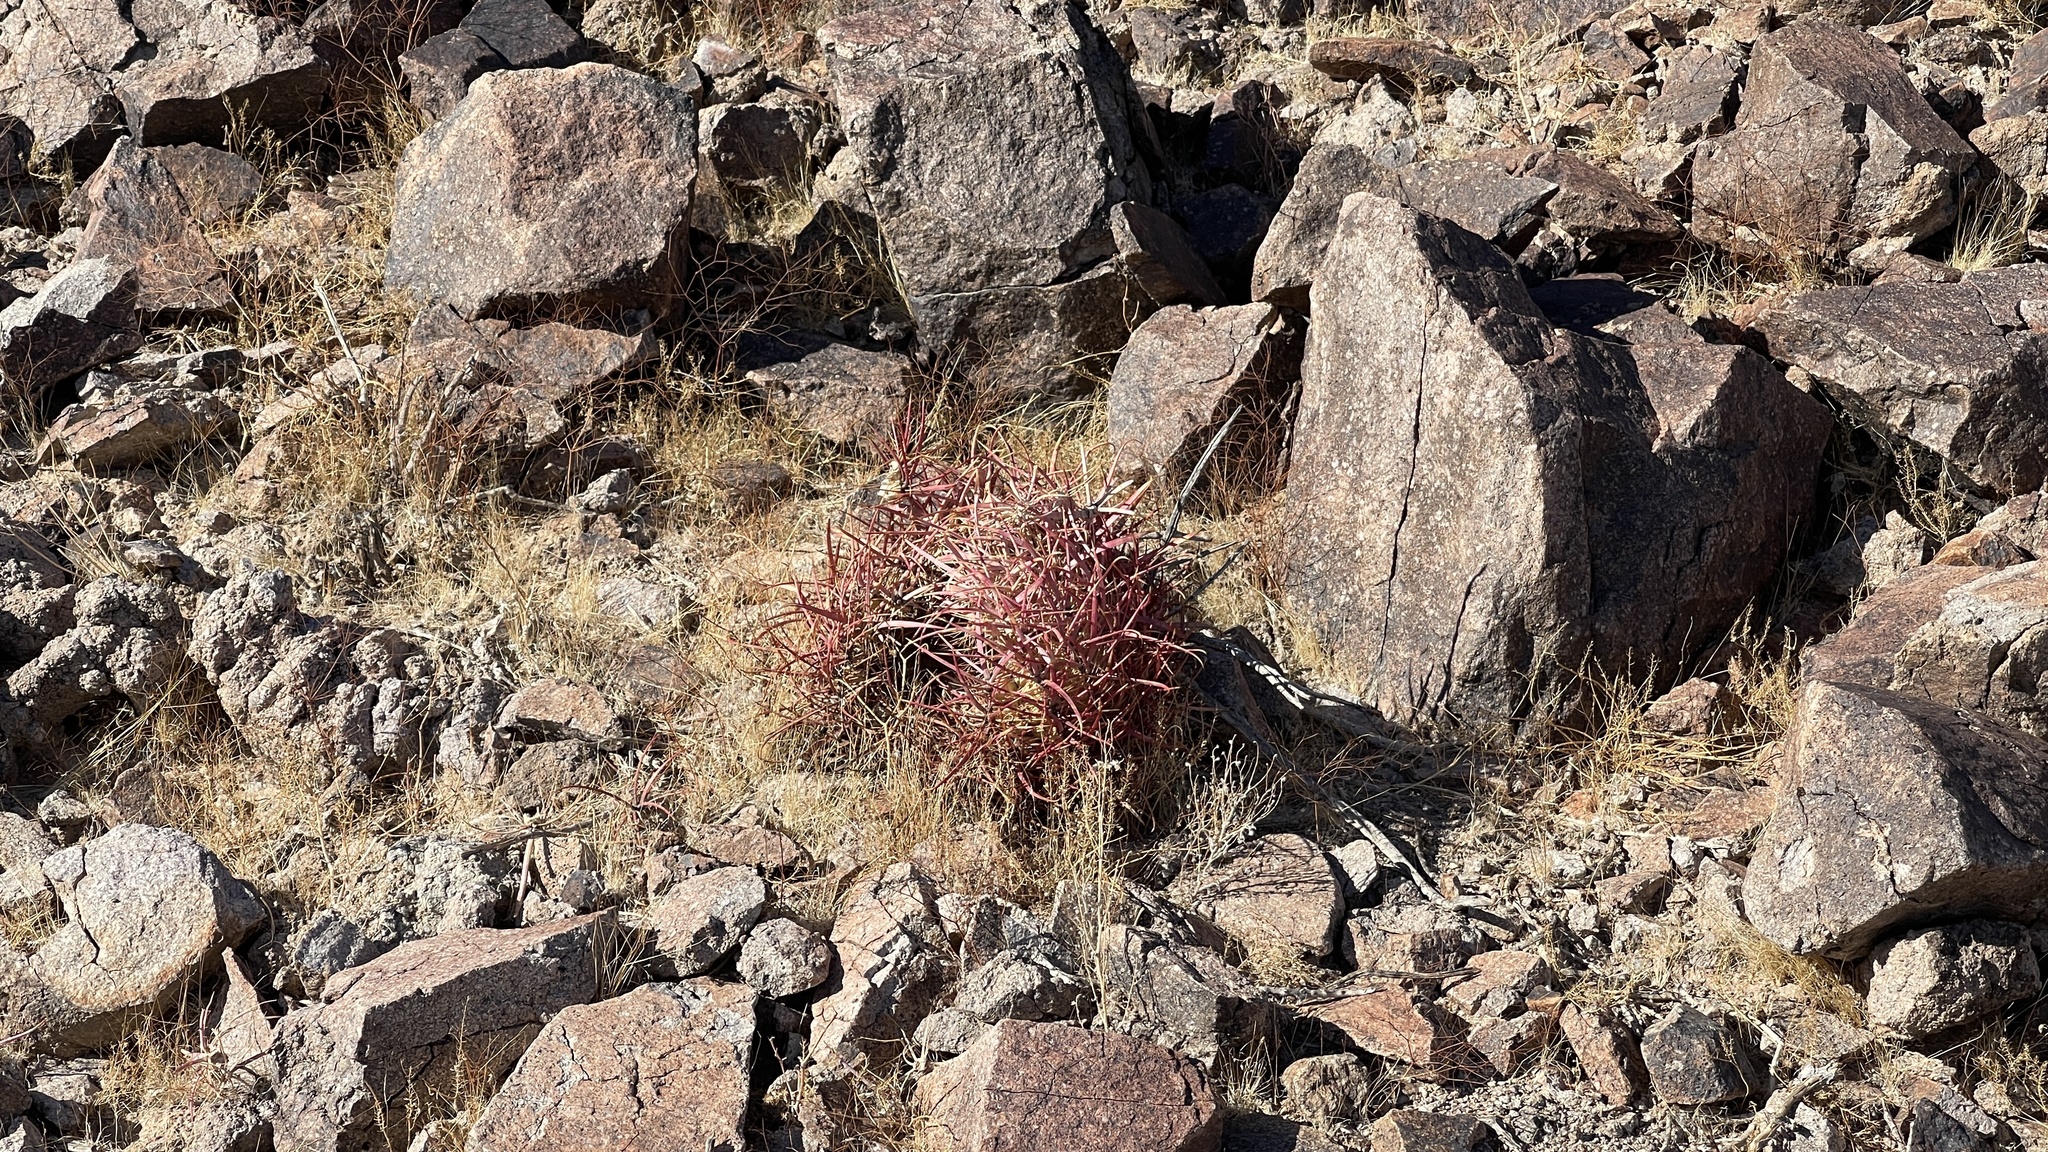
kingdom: Plantae
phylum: Tracheophyta
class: Magnoliopsida
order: Caryophyllales
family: Cactaceae
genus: Ferocactus
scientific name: Ferocactus cylindraceus
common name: California barrel cactus
